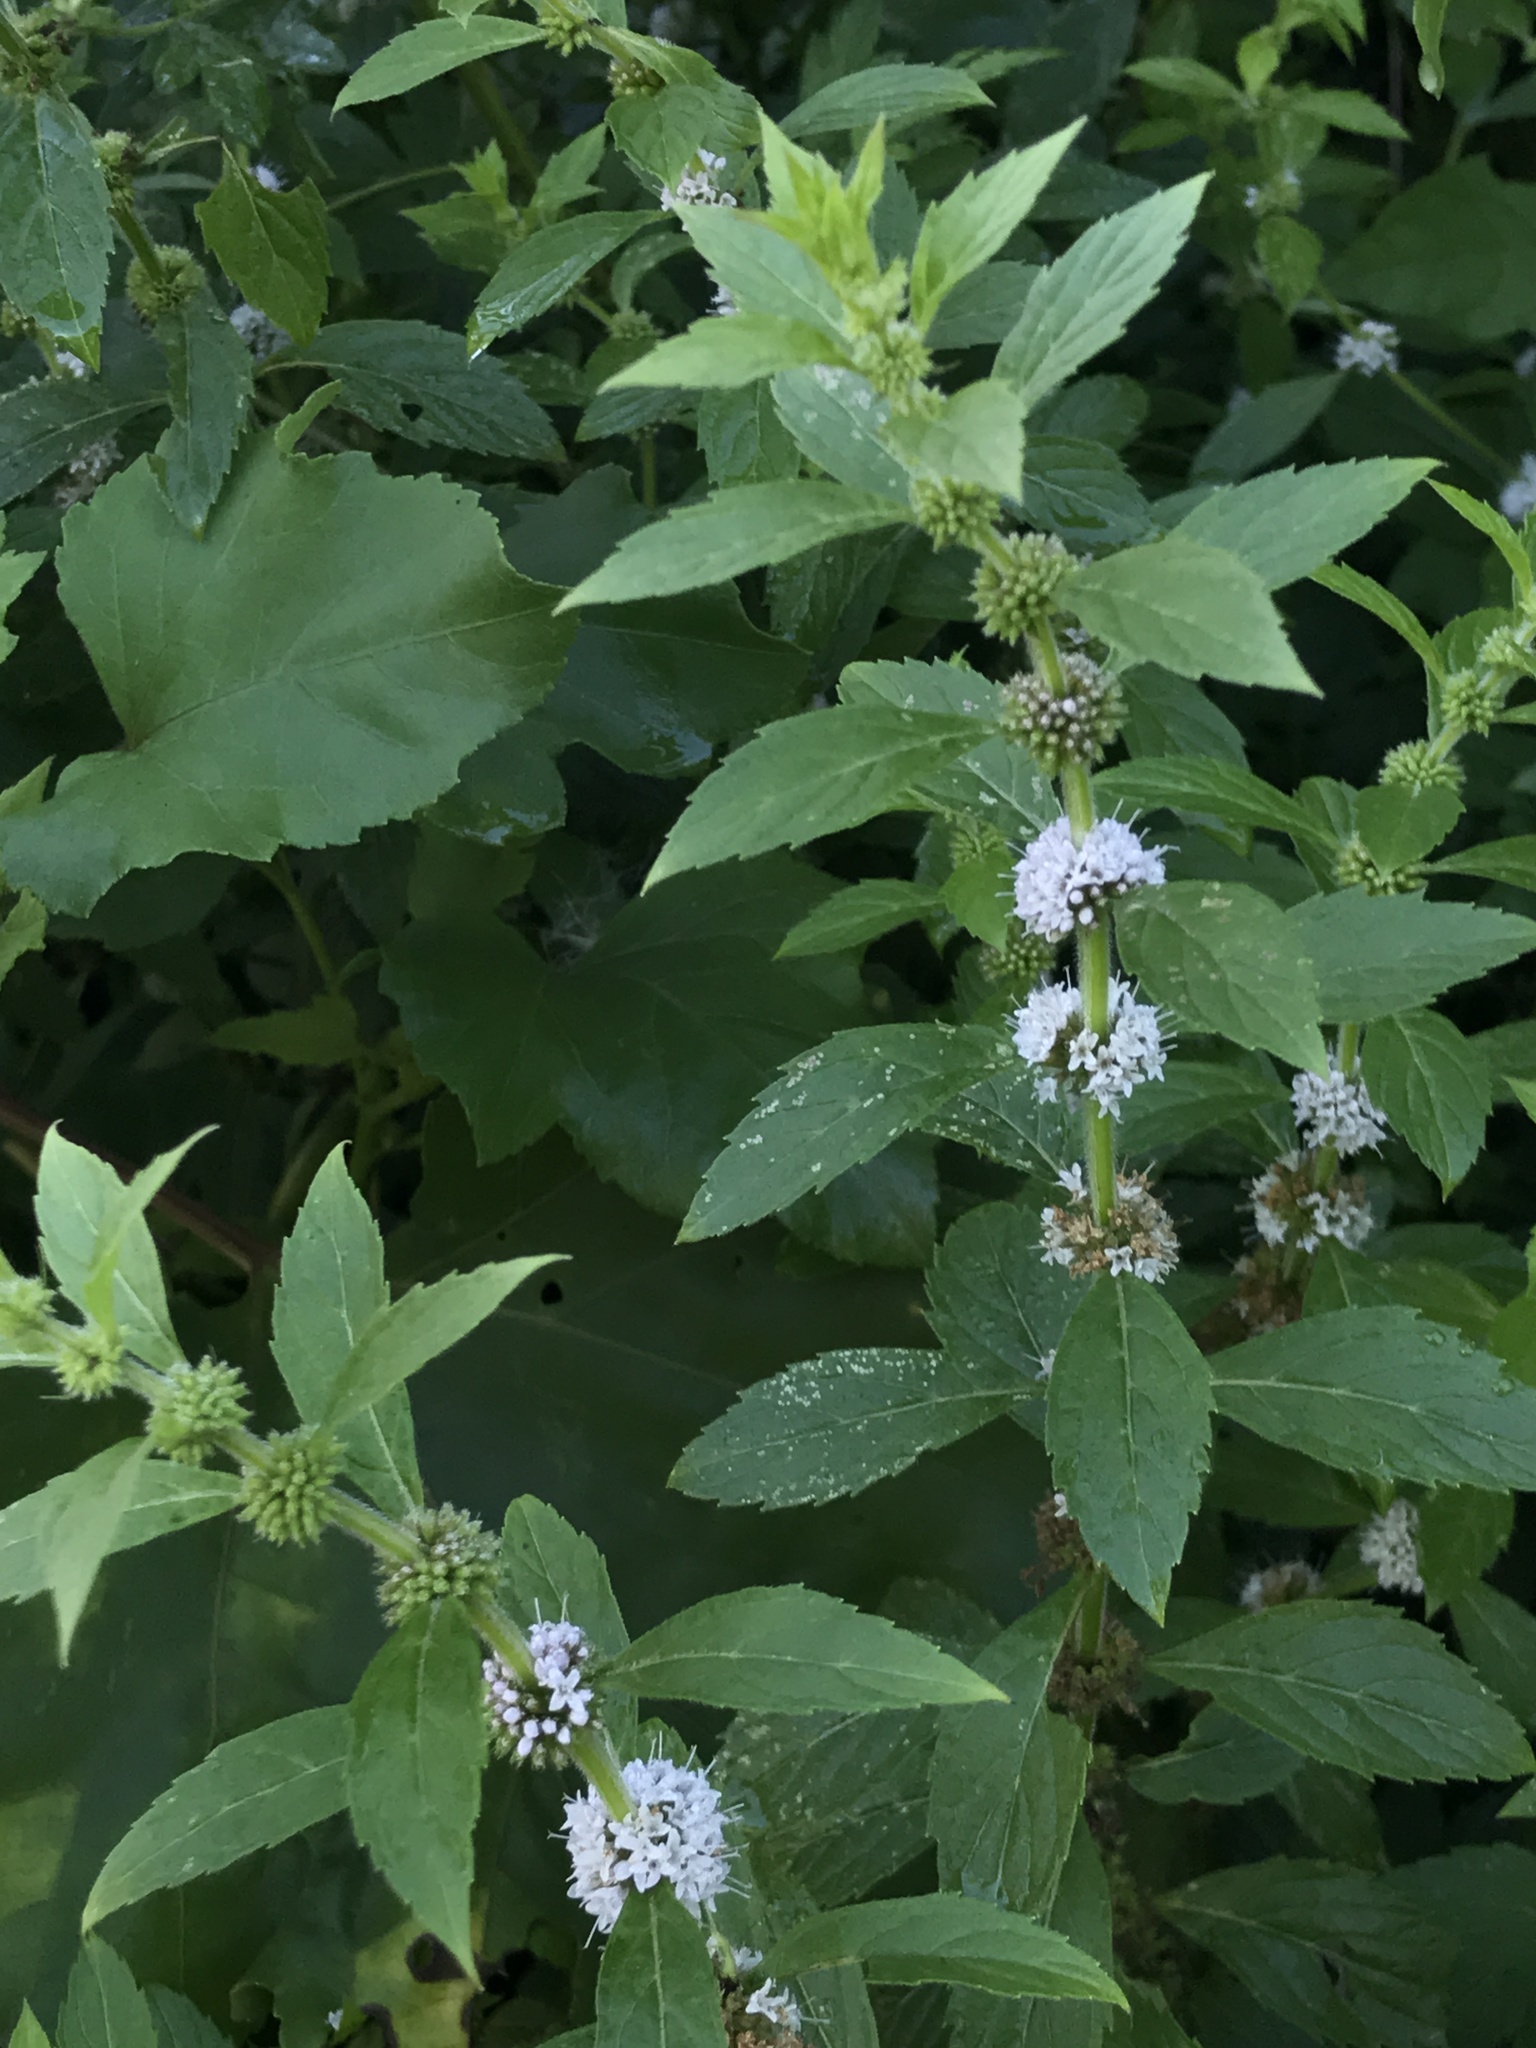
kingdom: Plantae
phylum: Tracheophyta
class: Magnoliopsida
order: Lamiales
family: Lamiaceae
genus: Mentha
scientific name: Mentha canadensis
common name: American corn mint
